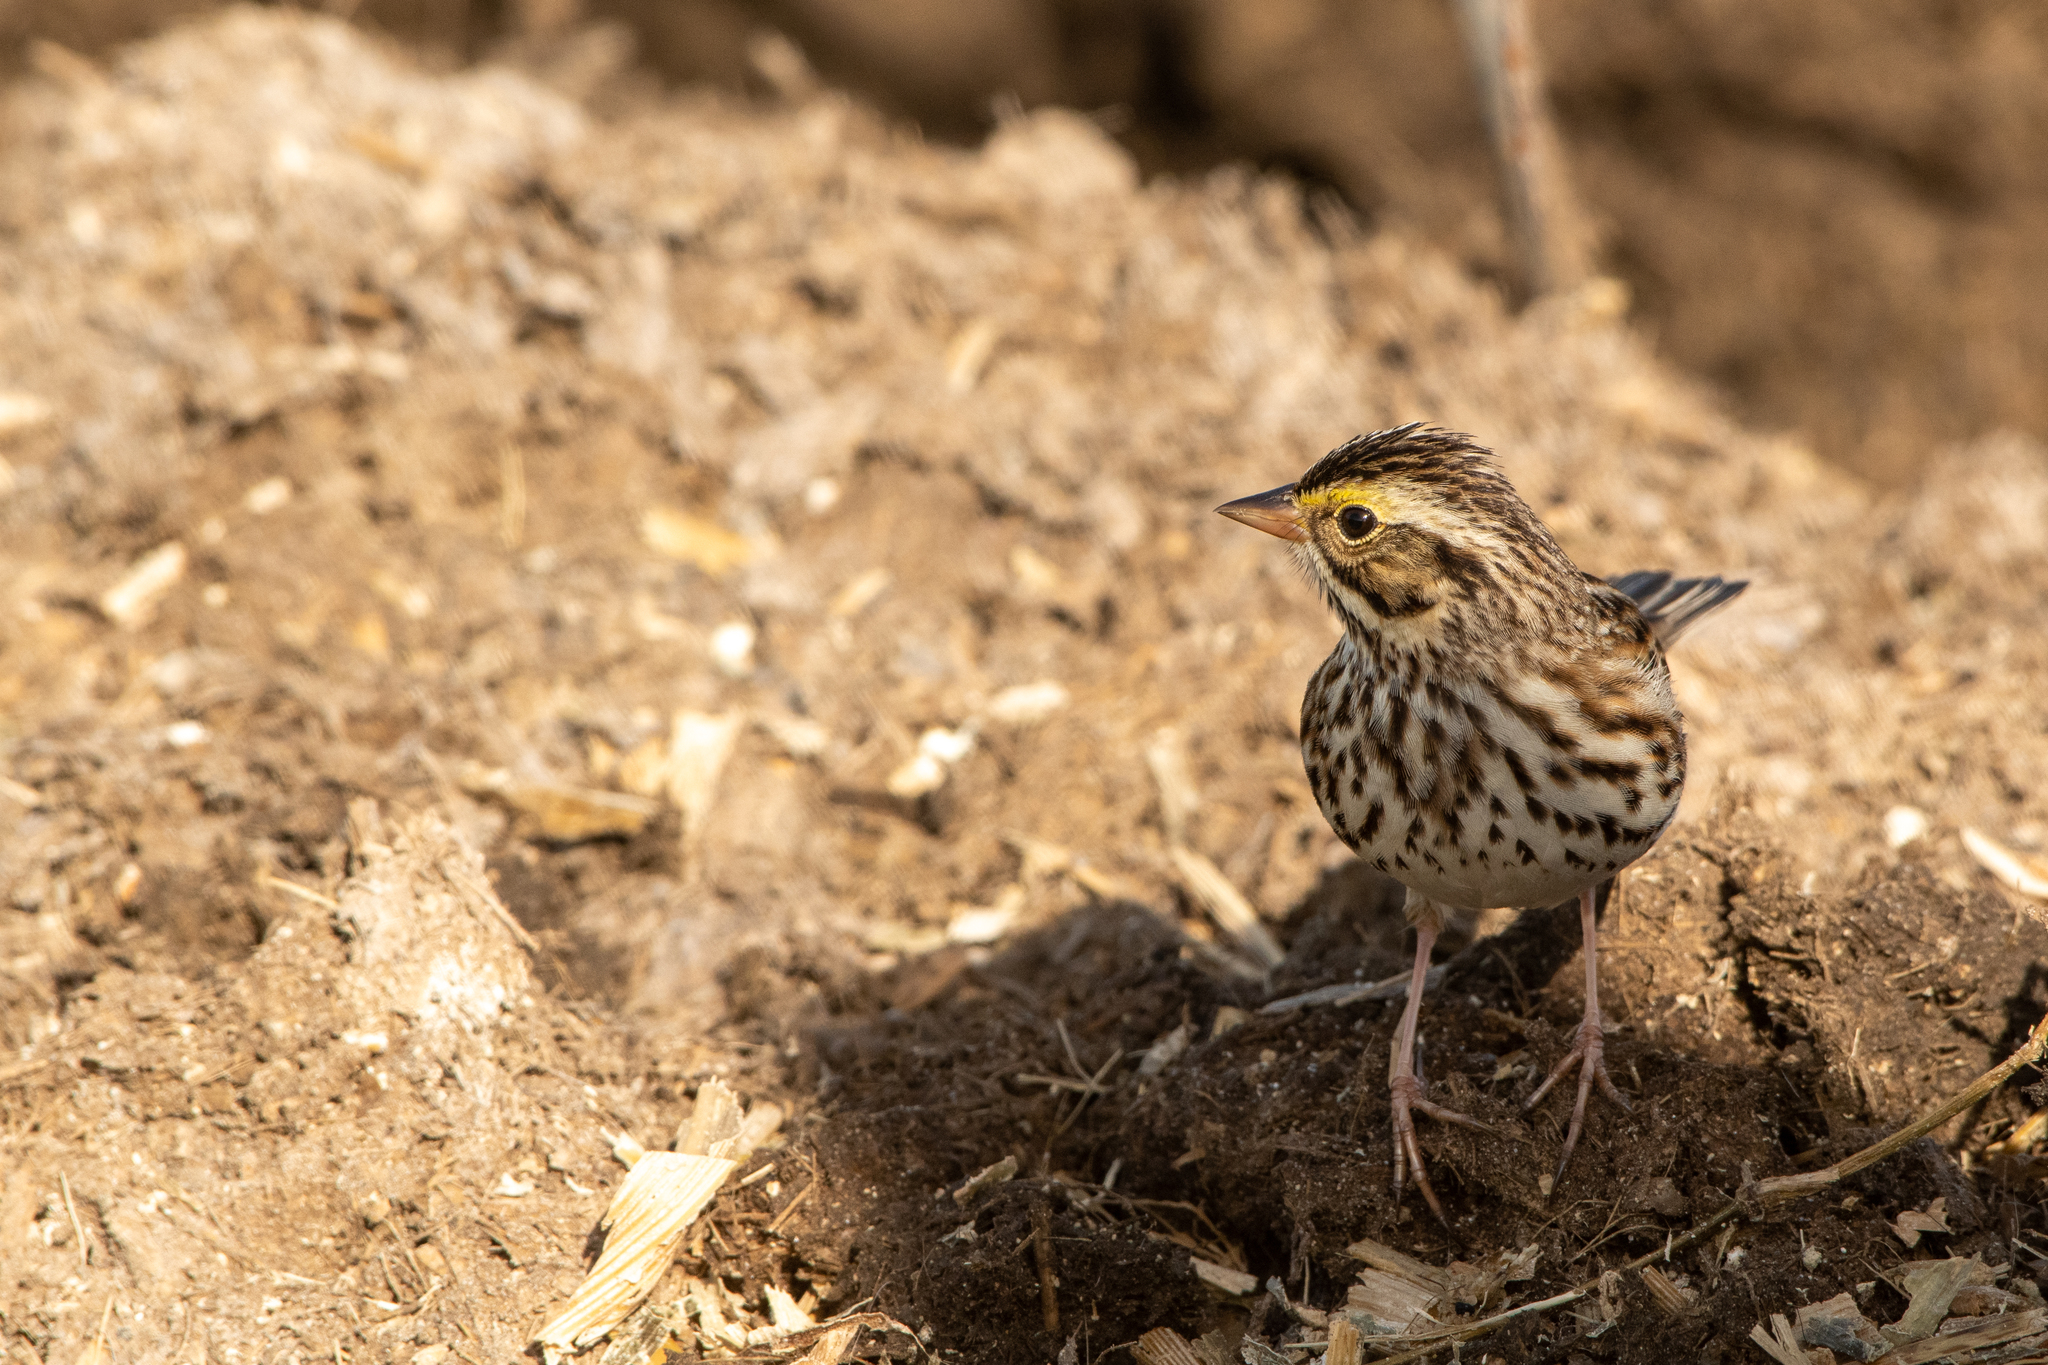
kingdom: Animalia
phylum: Chordata
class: Aves
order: Passeriformes
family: Passerellidae
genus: Passerculus
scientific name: Passerculus sandwichensis
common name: Savannah sparrow
